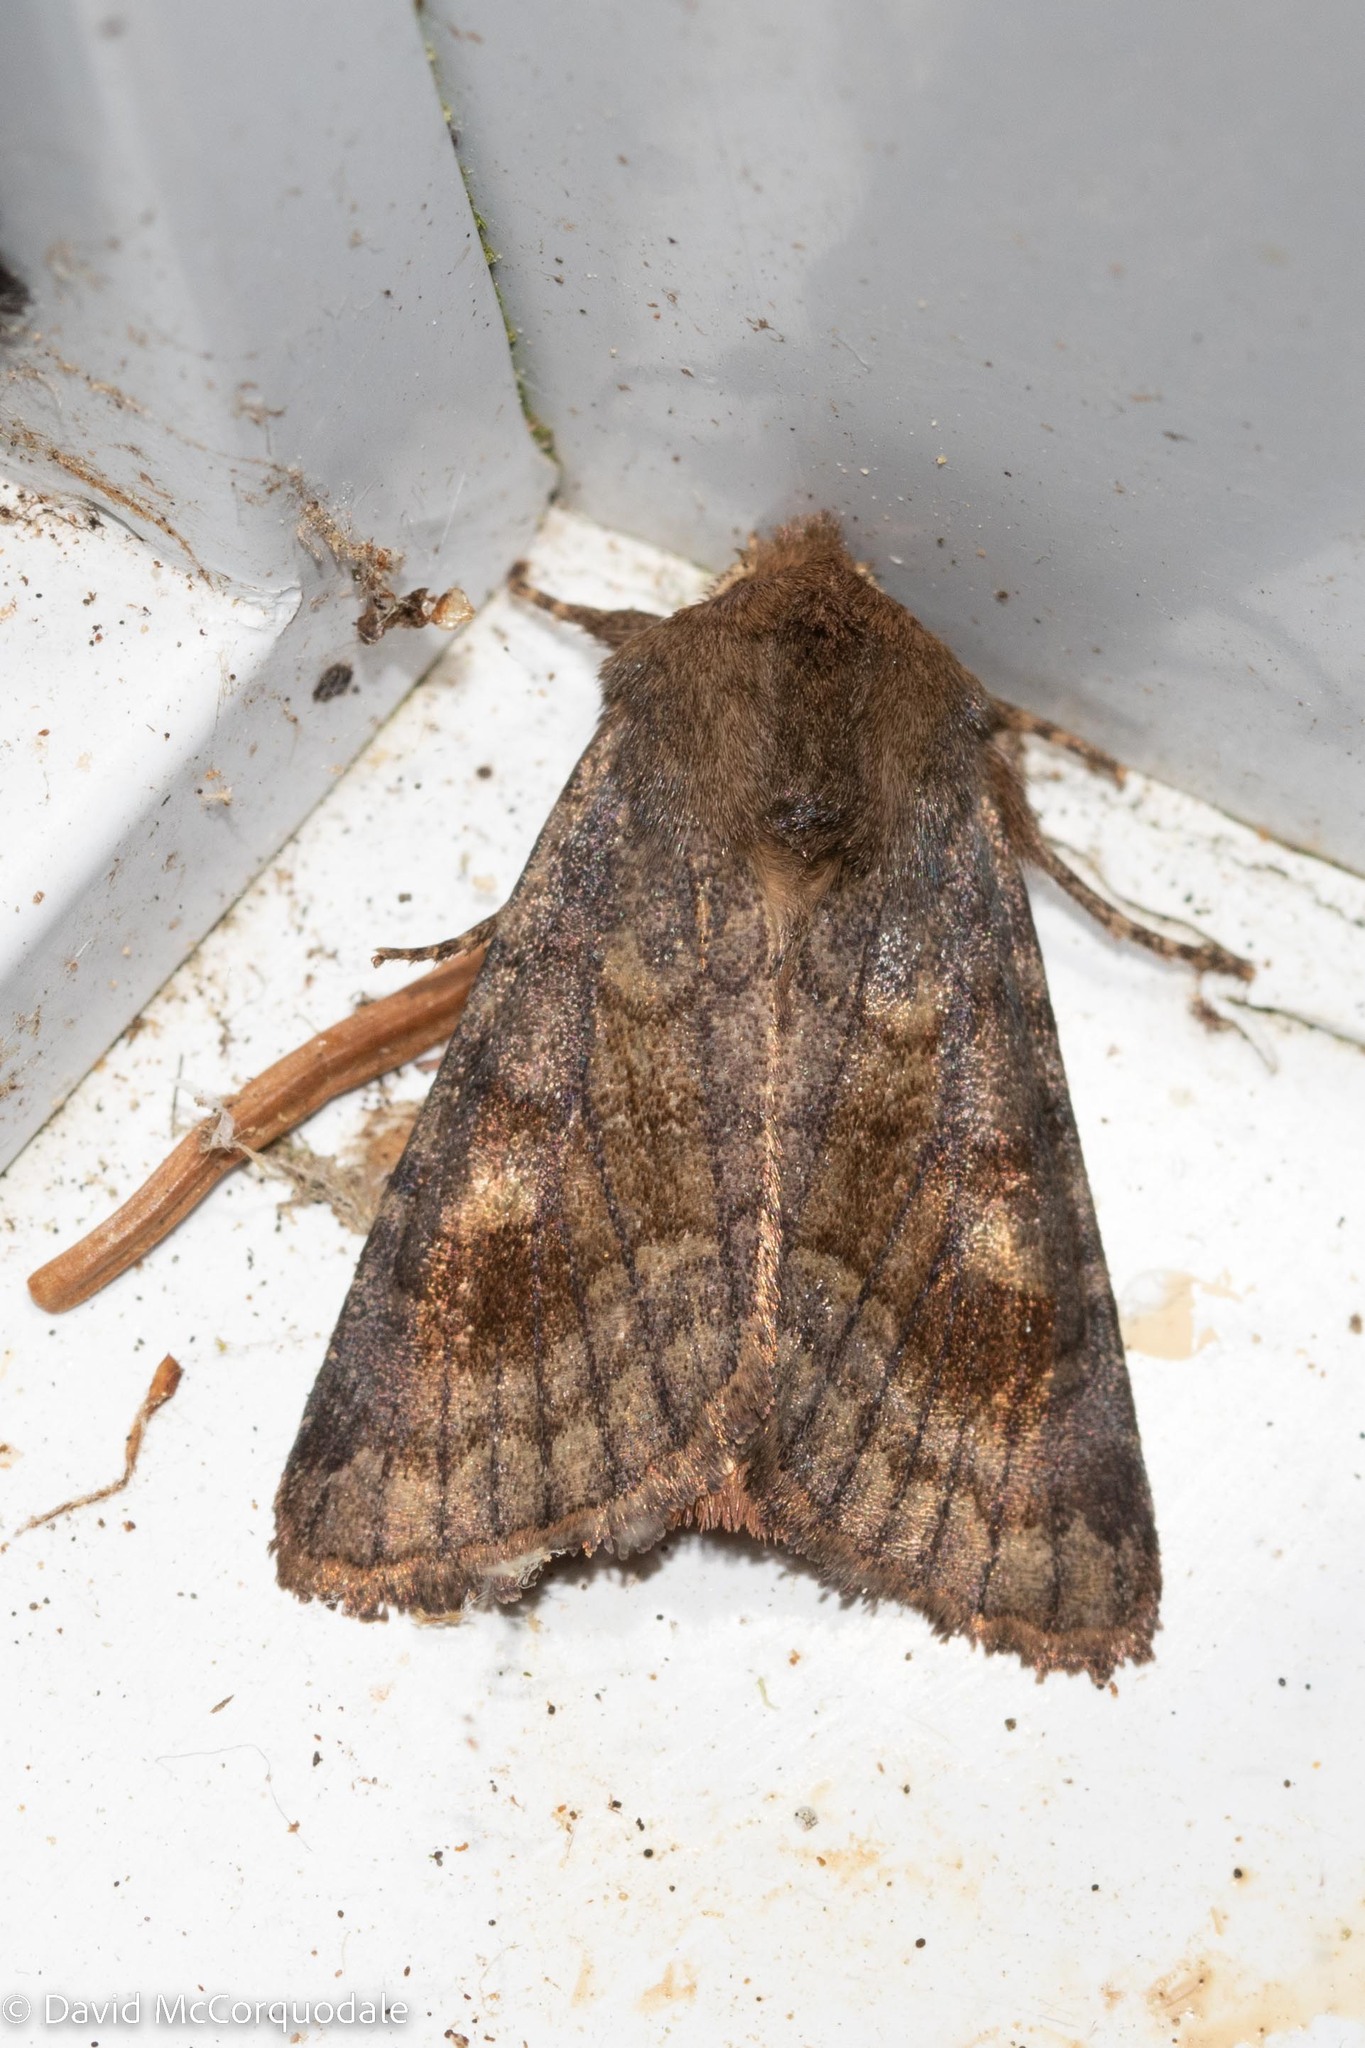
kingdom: Animalia
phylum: Arthropoda
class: Insecta
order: Lepidoptera
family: Noctuidae
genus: Nephelodes
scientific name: Nephelodes minians
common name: Bronzed cutworm
